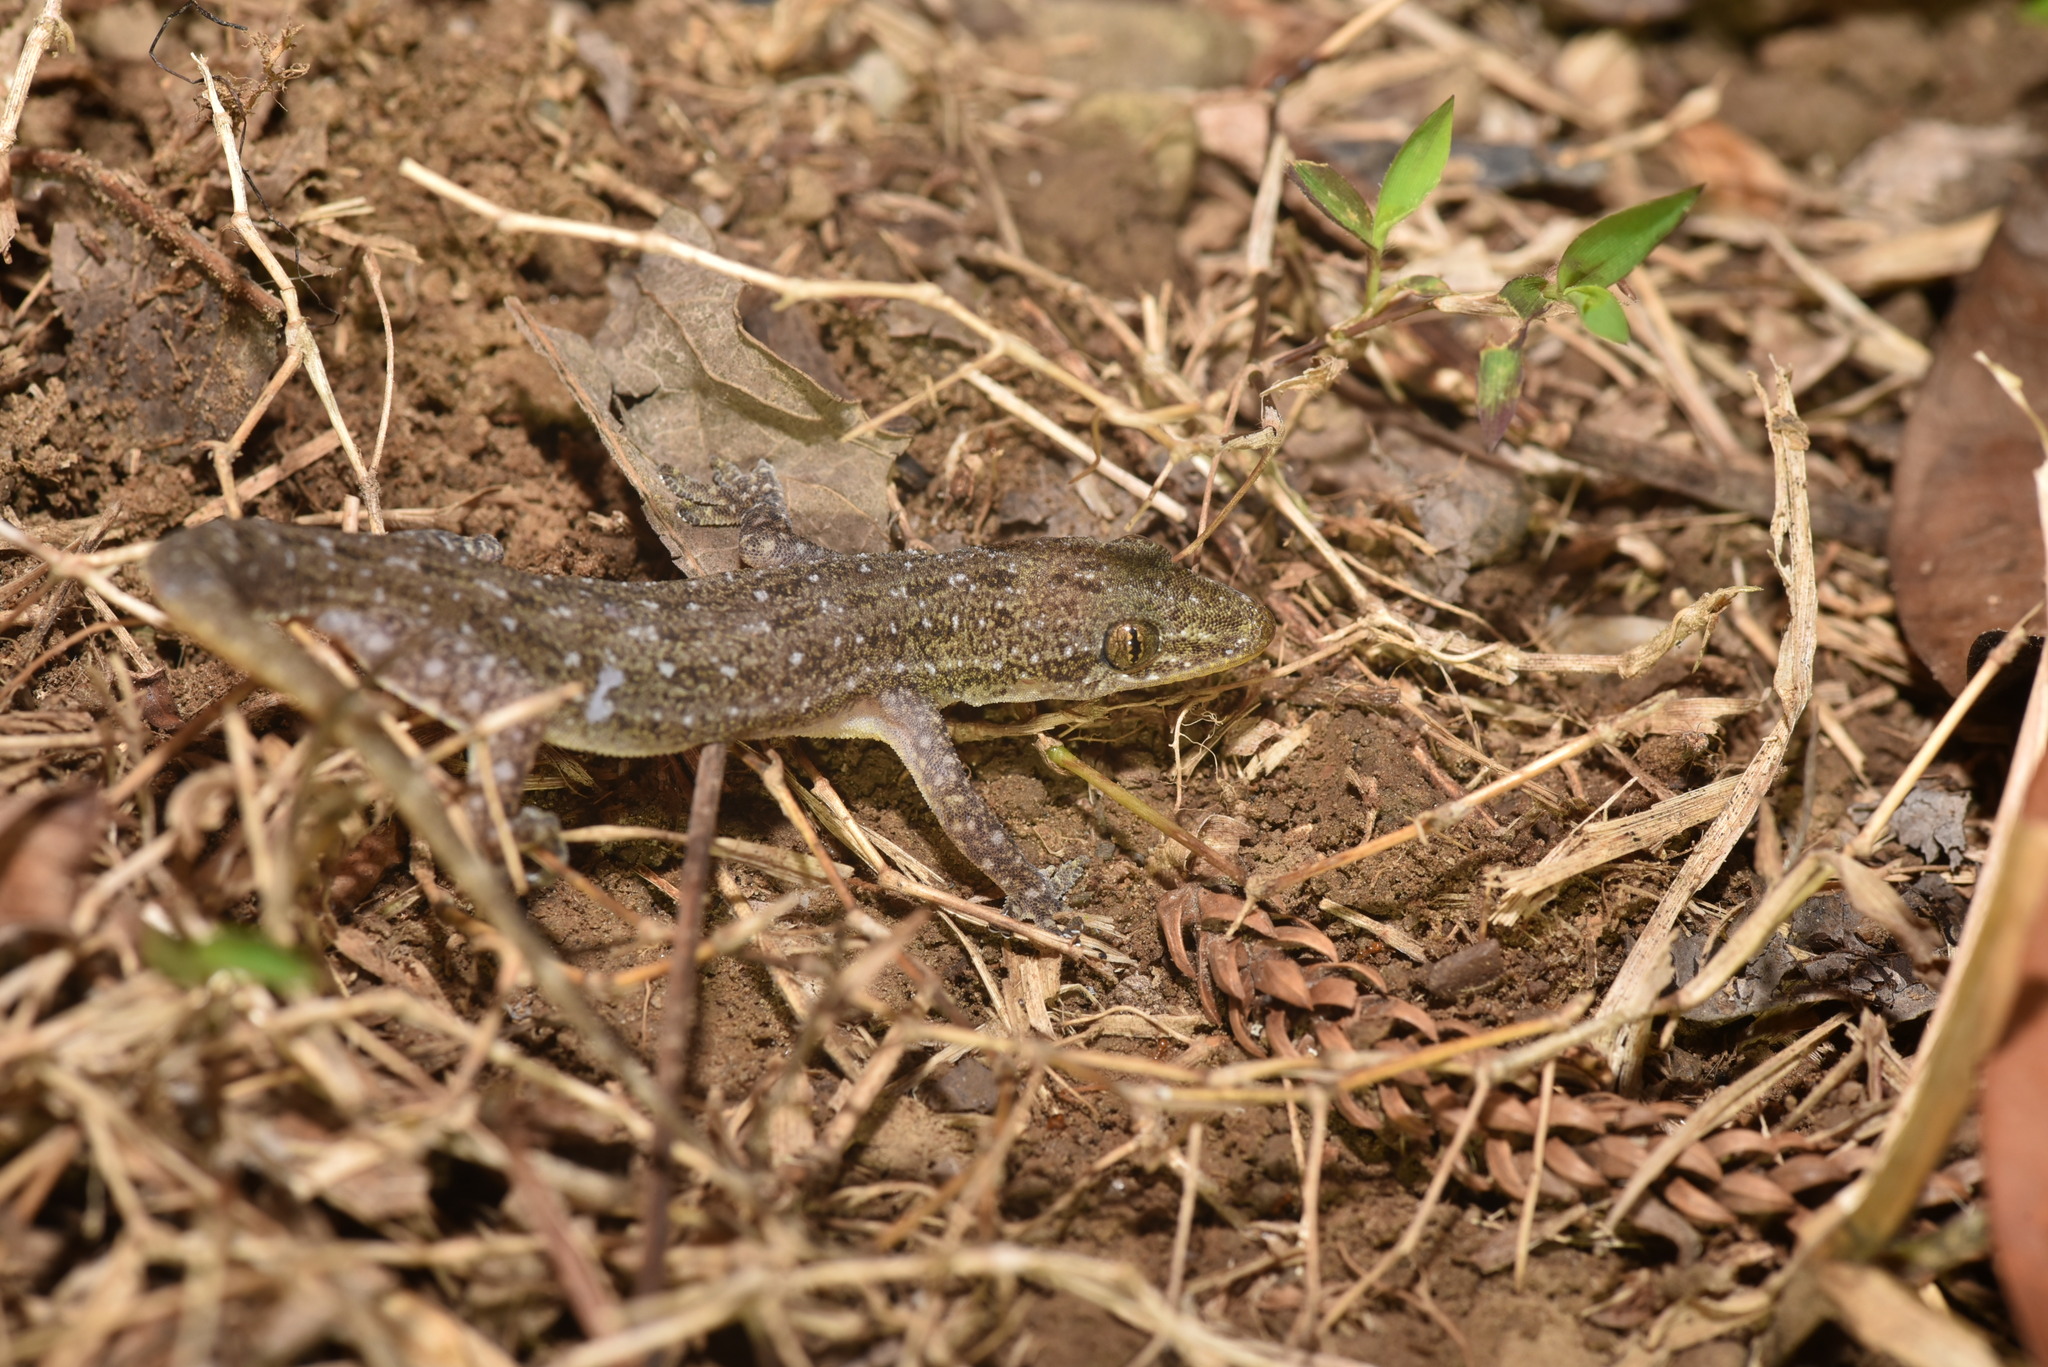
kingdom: Animalia
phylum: Chordata
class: Squamata
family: Gekkonidae
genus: Hemidactylus
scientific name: Hemidactylus stejnegeri
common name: Stejneger's leaftoed gecko
